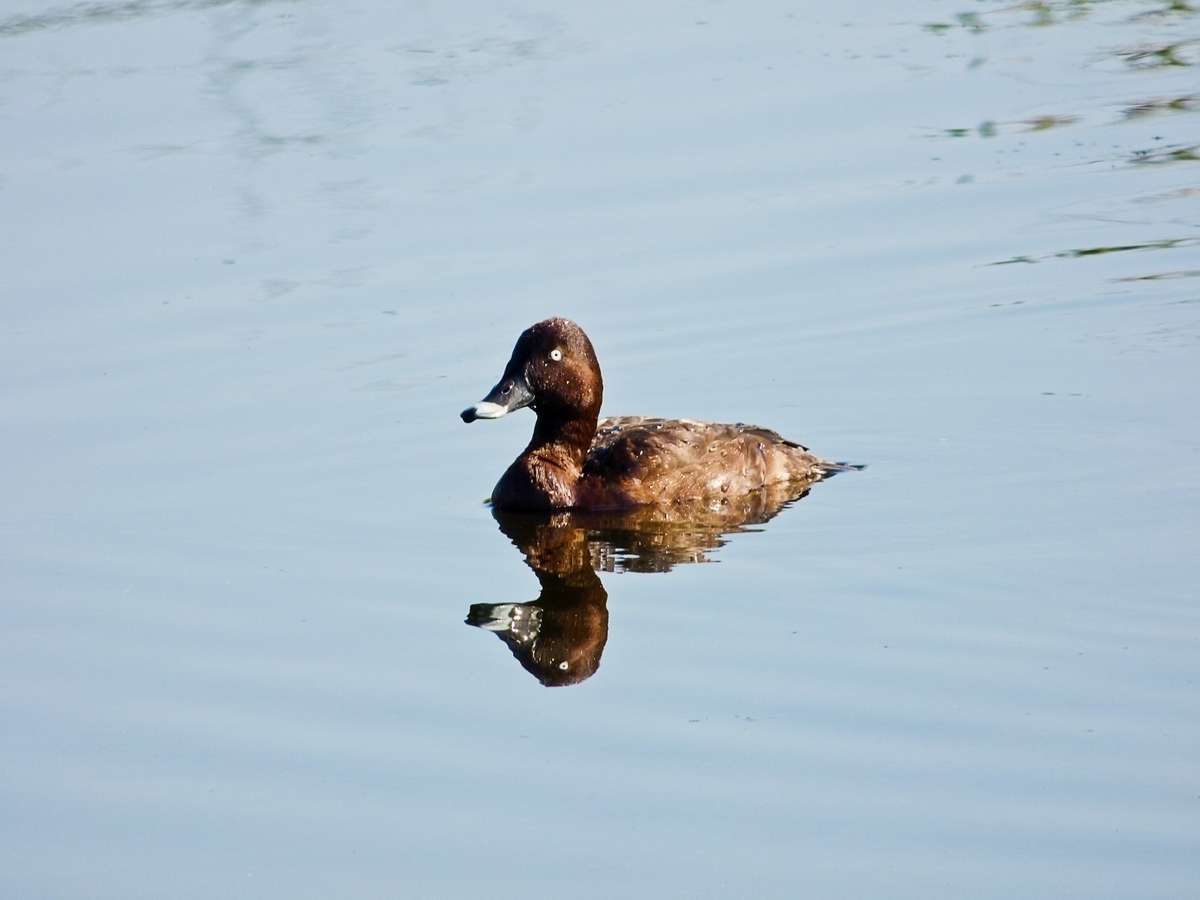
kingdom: Animalia
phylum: Chordata
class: Aves
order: Anseriformes
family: Anatidae
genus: Aythya
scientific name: Aythya australis
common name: Hardhead
